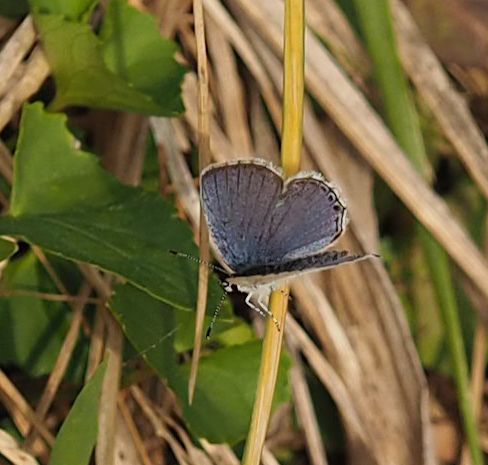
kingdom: Animalia
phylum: Arthropoda
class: Insecta
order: Lepidoptera
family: Lycaenidae
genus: Elkalyce
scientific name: Elkalyce comyntas
